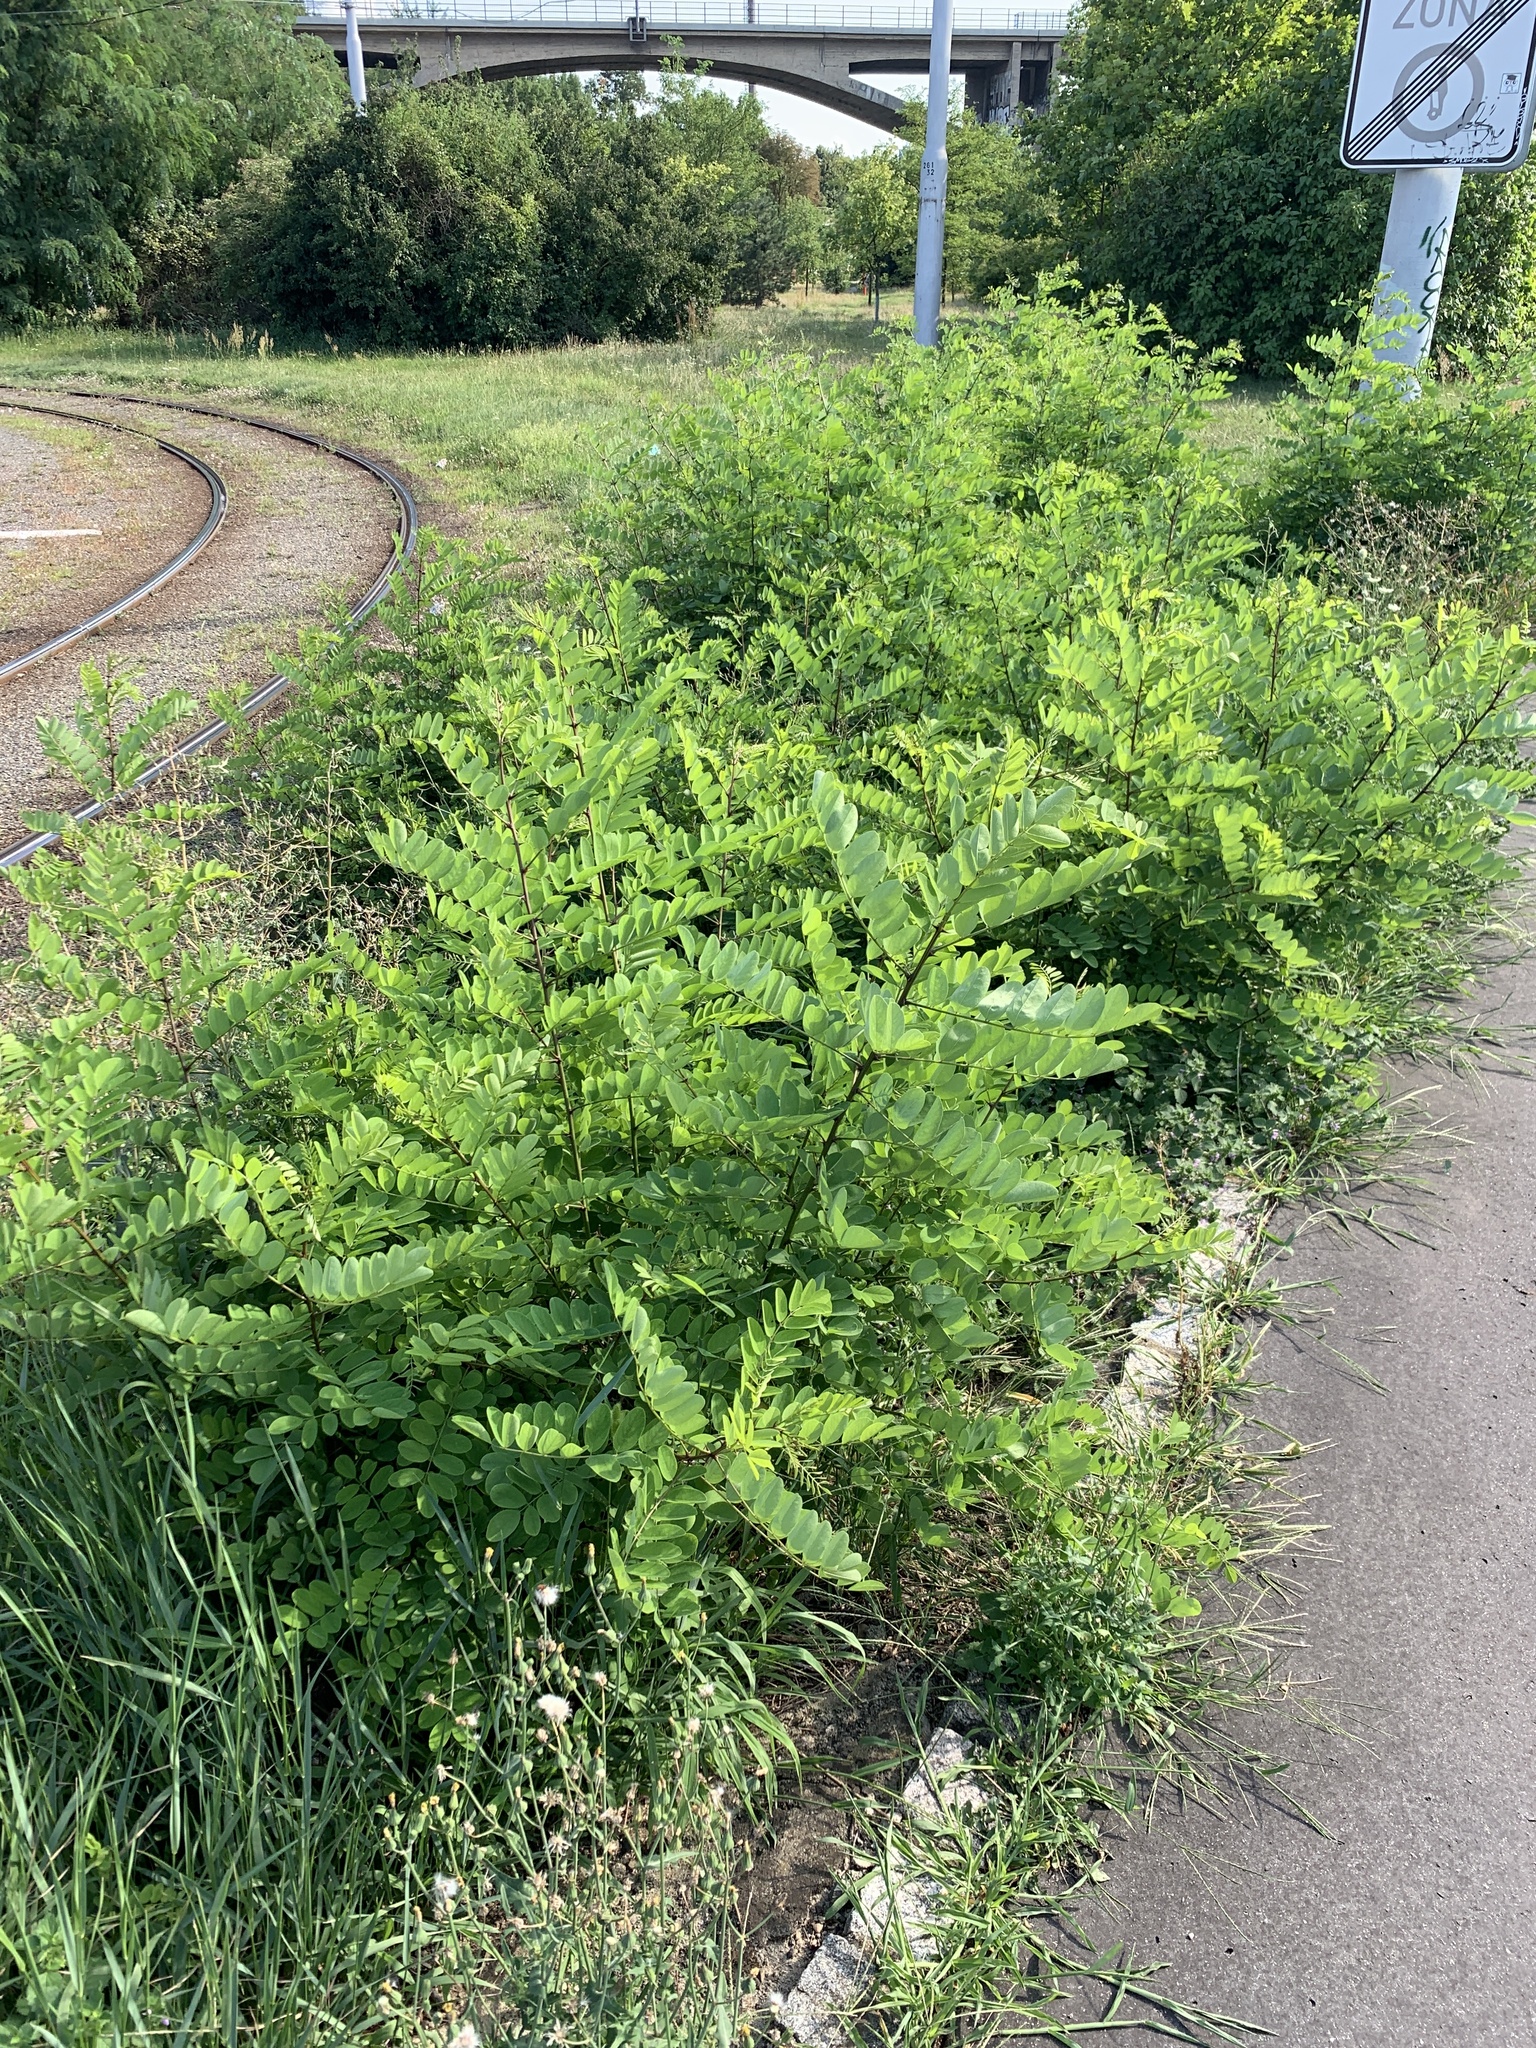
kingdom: Plantae
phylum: Tracheophyta
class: Magnoliopsida
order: Fabales
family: Fabaceae
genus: Robinia
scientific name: Robinia pseudoacacia
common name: Black locust
